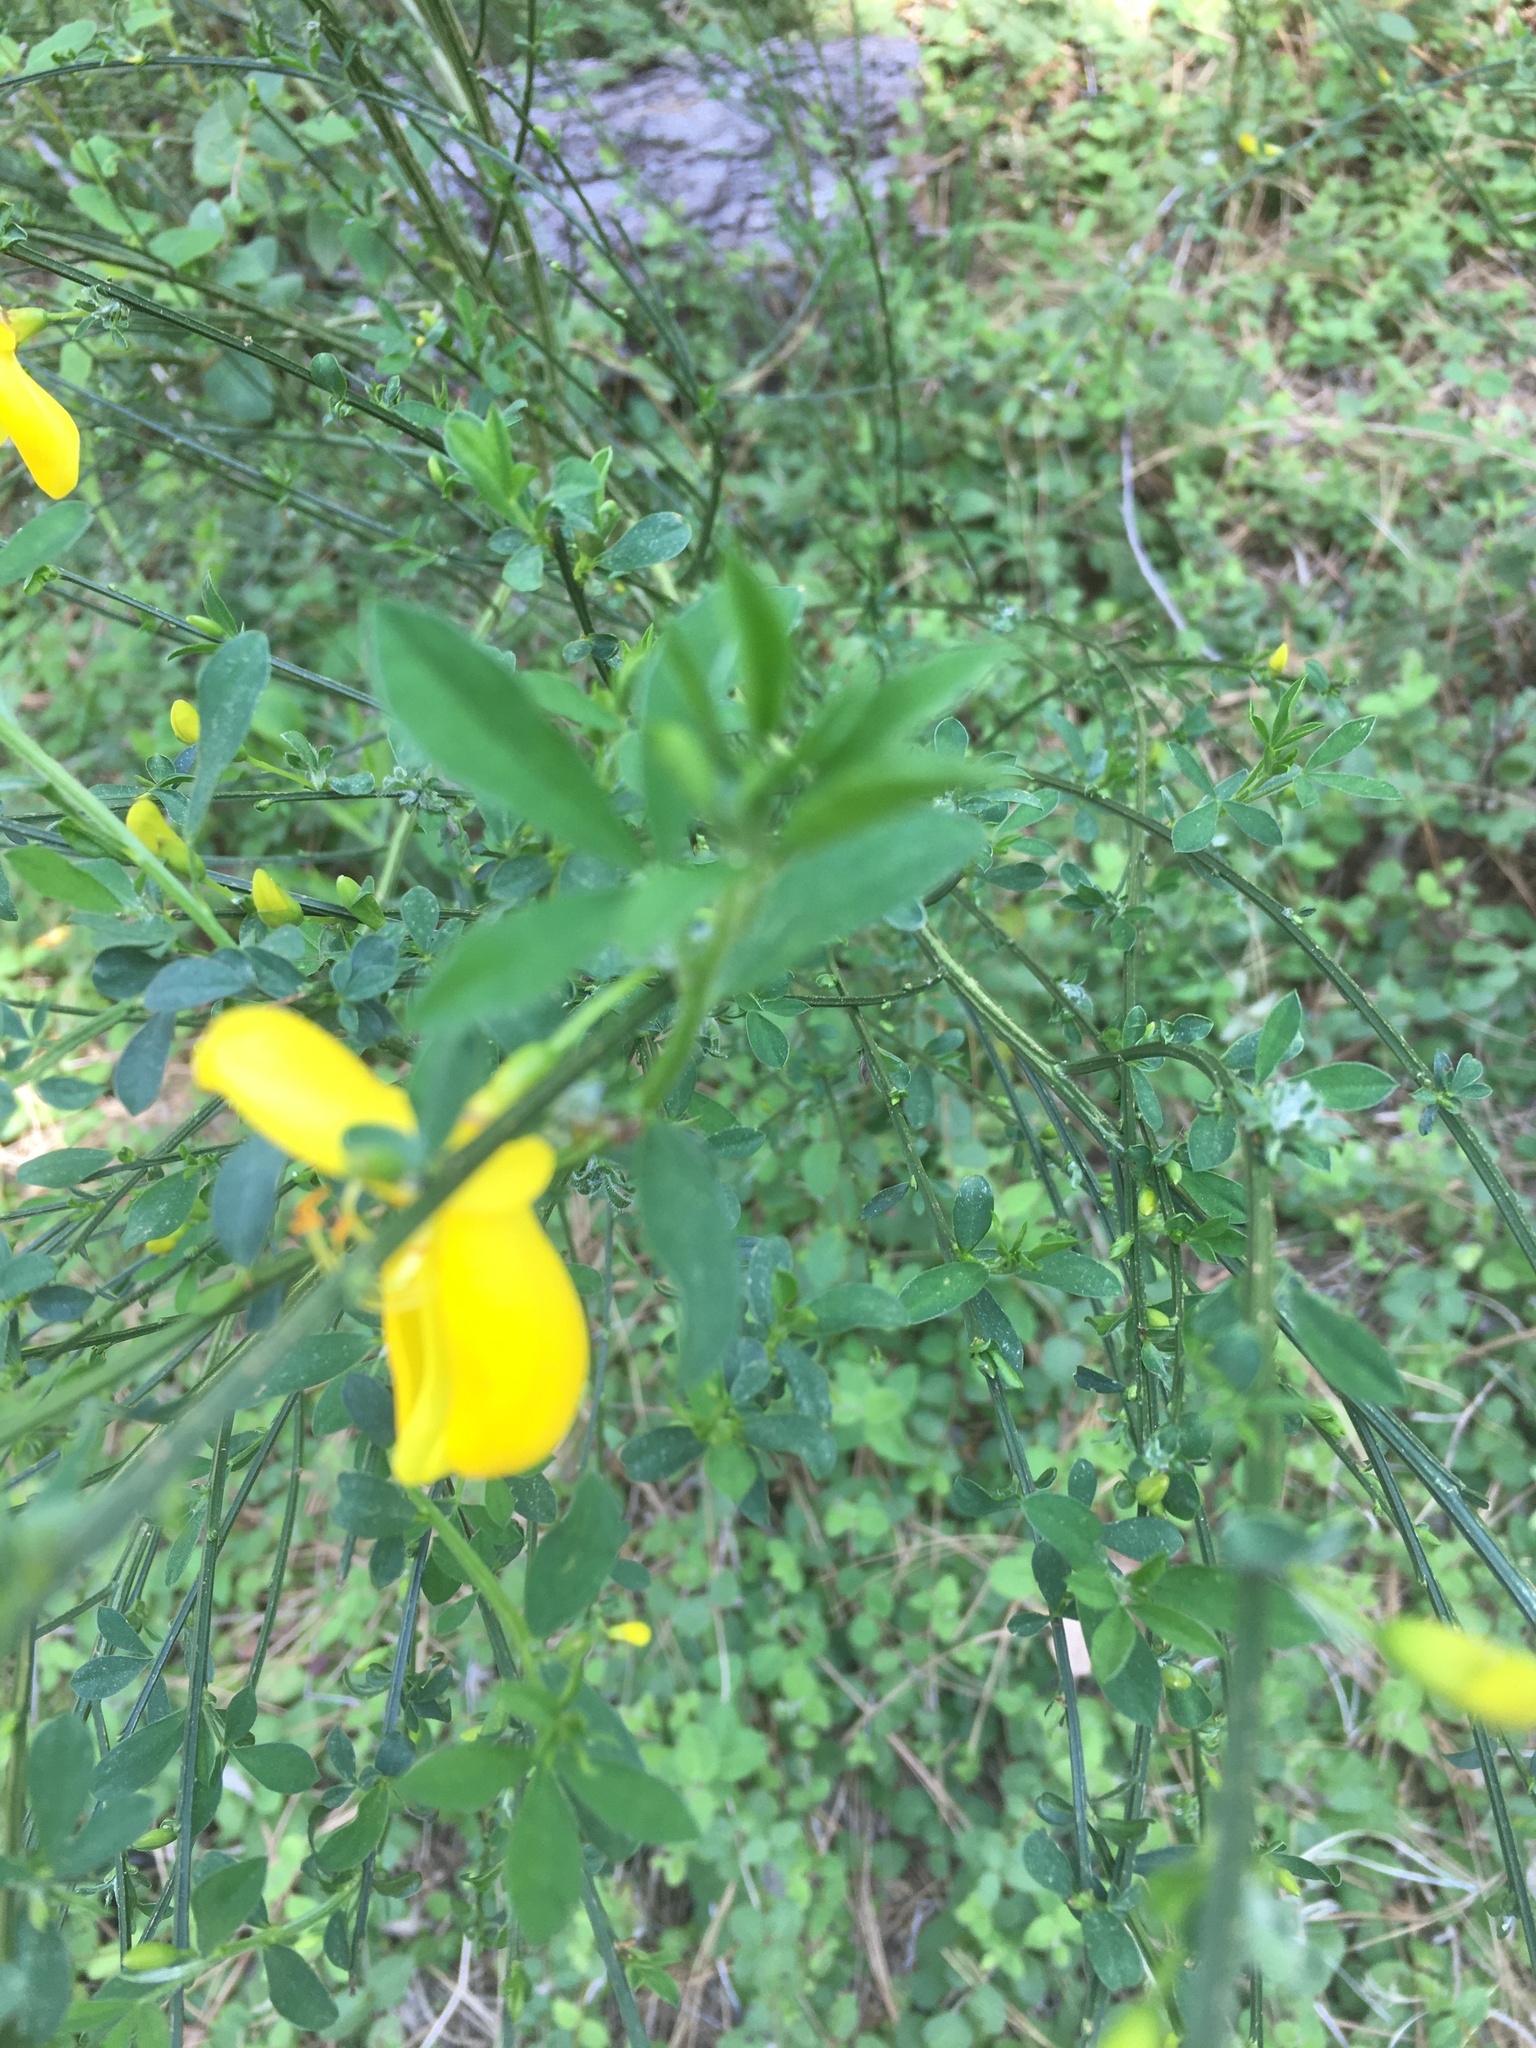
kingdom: Plantae
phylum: Tracheophyta
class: Magnoliopsida
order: Fabales
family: Fabaceae
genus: Cytisus
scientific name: Cytisus scoparius
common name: Scotch broom
